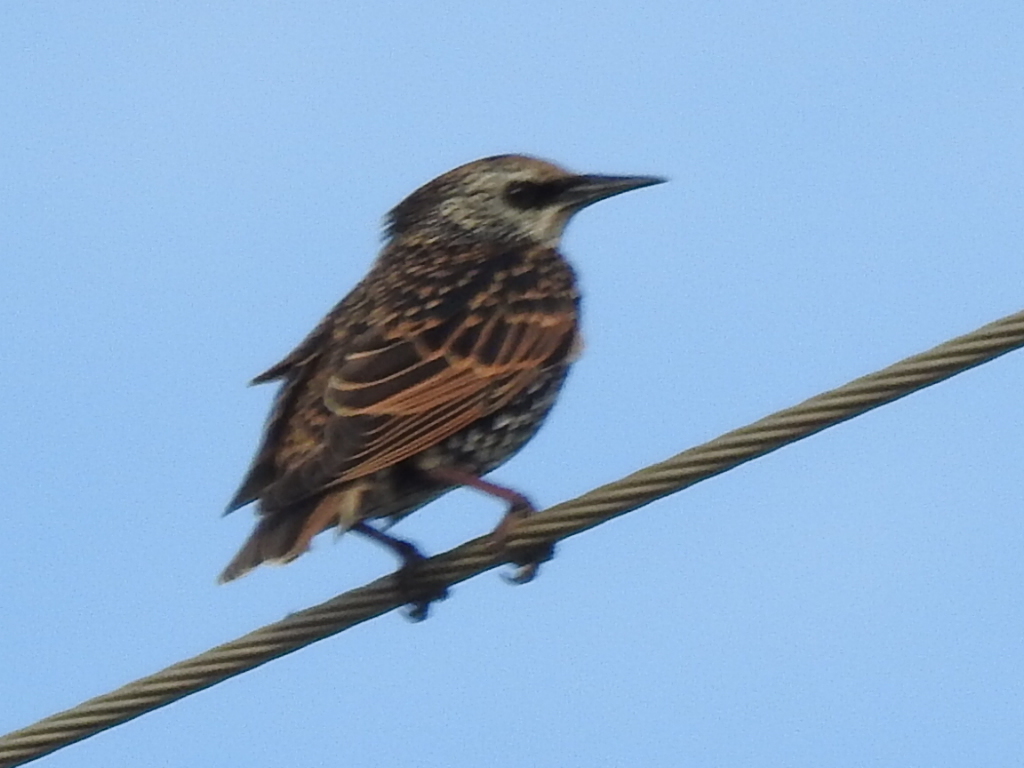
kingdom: Animalia
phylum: Chordata
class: Aves
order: Passeriformes
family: Sturnidae
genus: Sturnus
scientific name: Sturnus vulgaris
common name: Common starling
